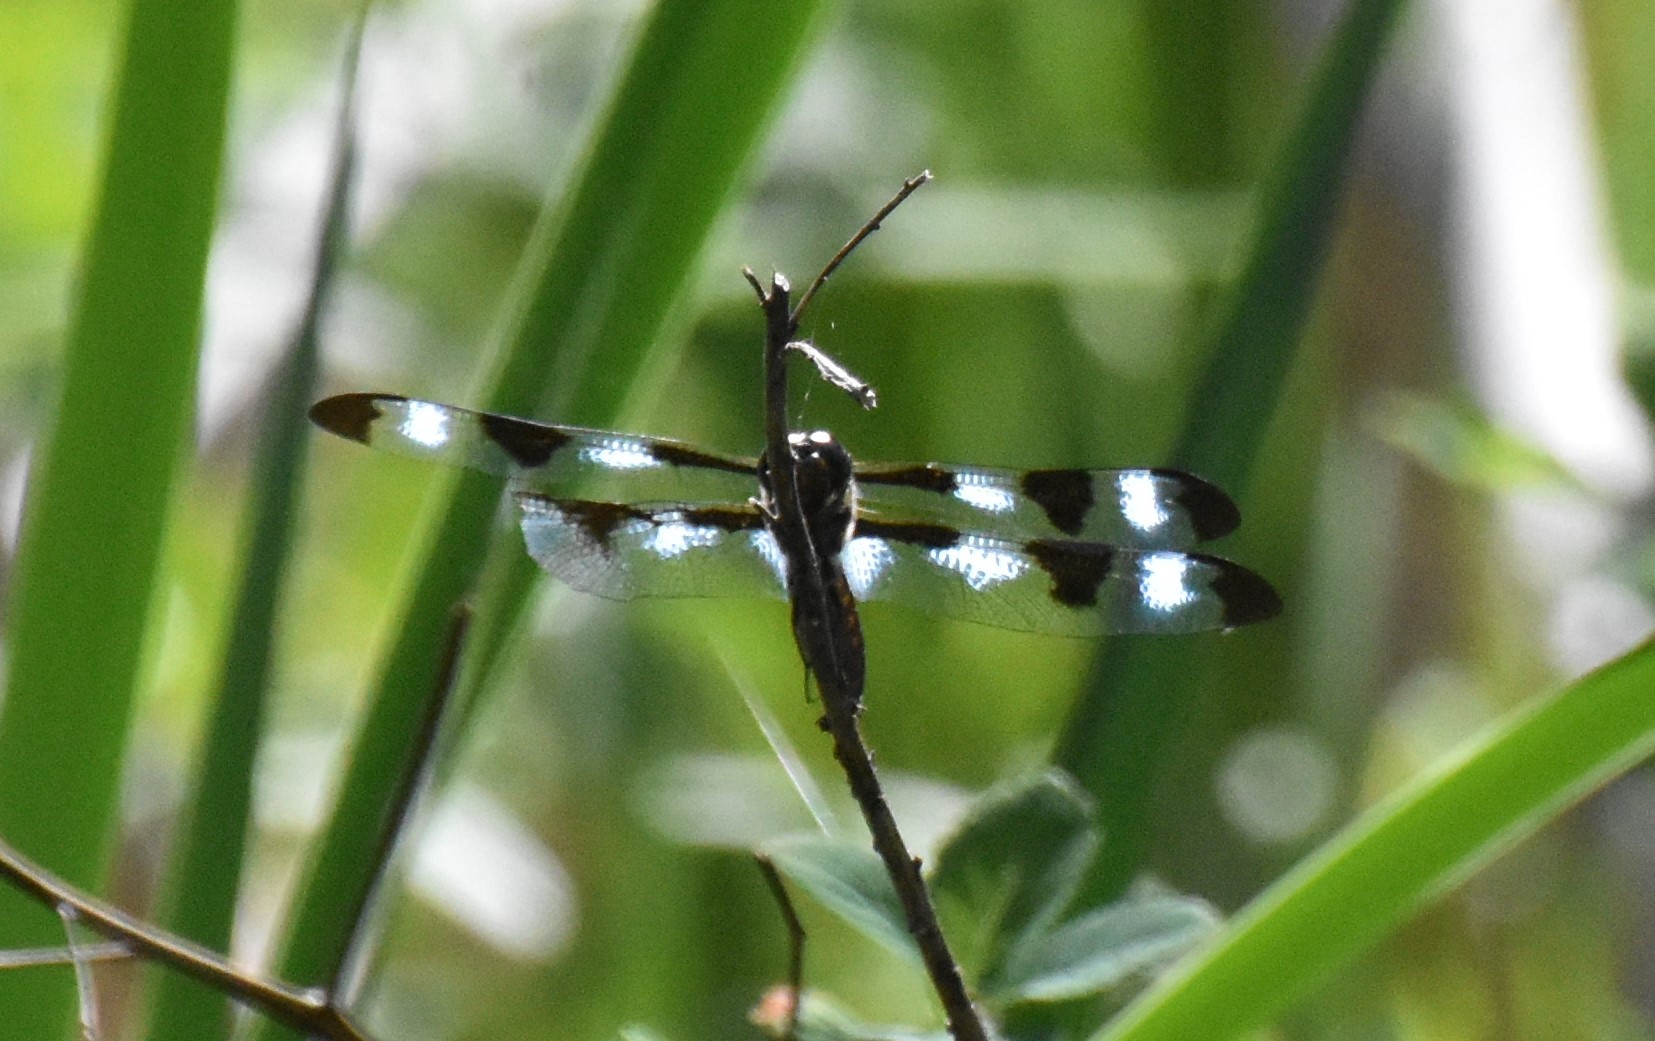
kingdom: Animalia
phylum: Arthropoda
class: Insecta
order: Odonata
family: Libellulidae
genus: Libellula
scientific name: Libellula pulchella
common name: Twelve-spotted skimmer
